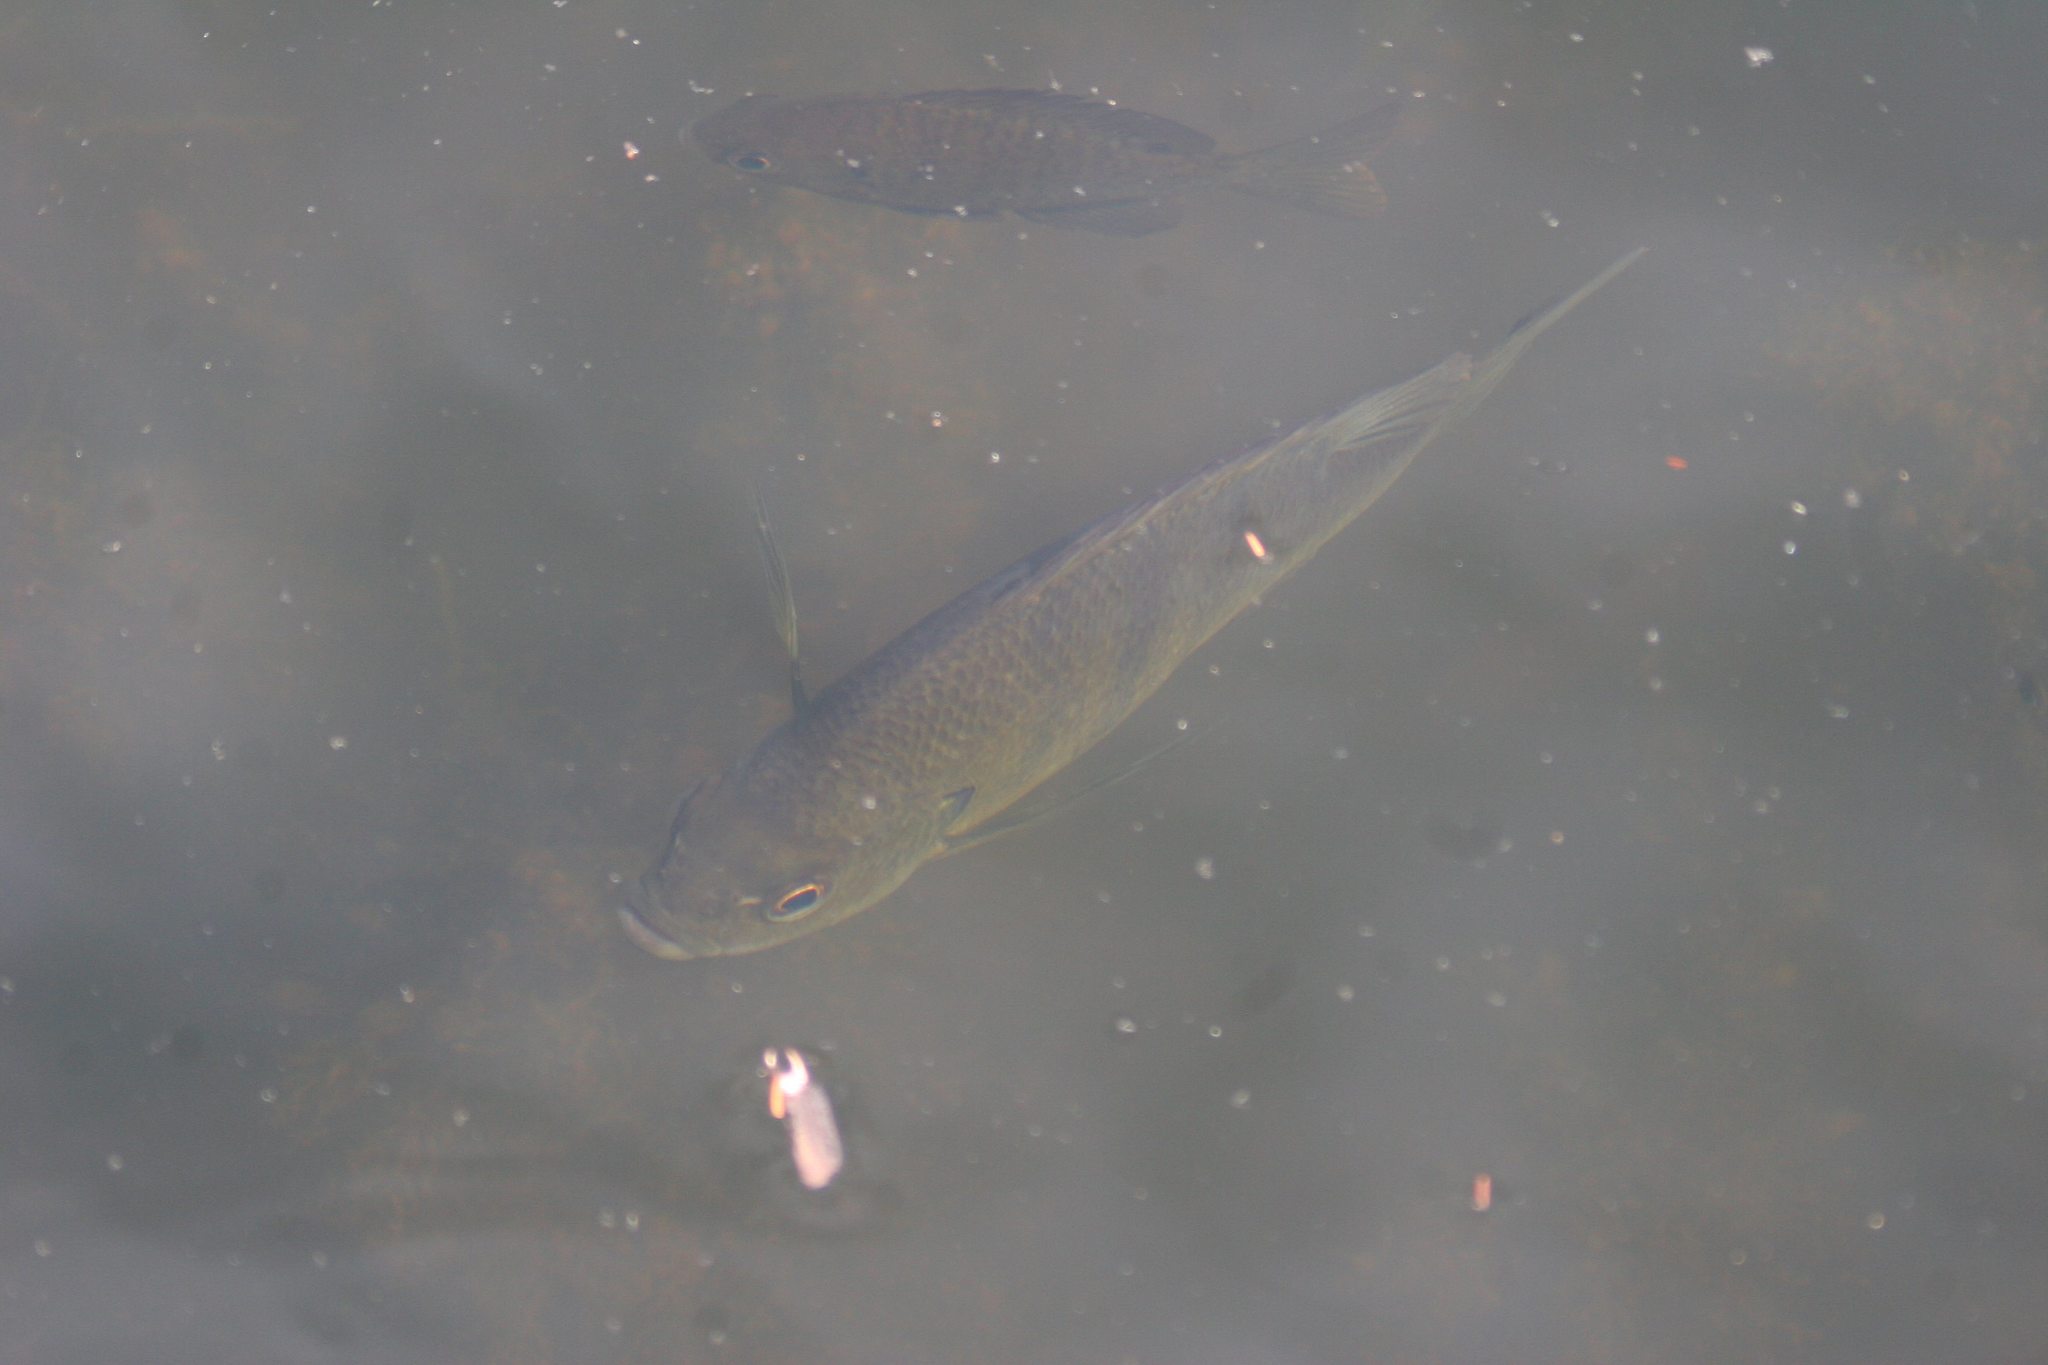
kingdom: Animalia
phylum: Chordata
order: Perciformes
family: Centrarchidae
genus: Lepomis
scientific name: Lepomis macrochirus
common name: Bluegill
